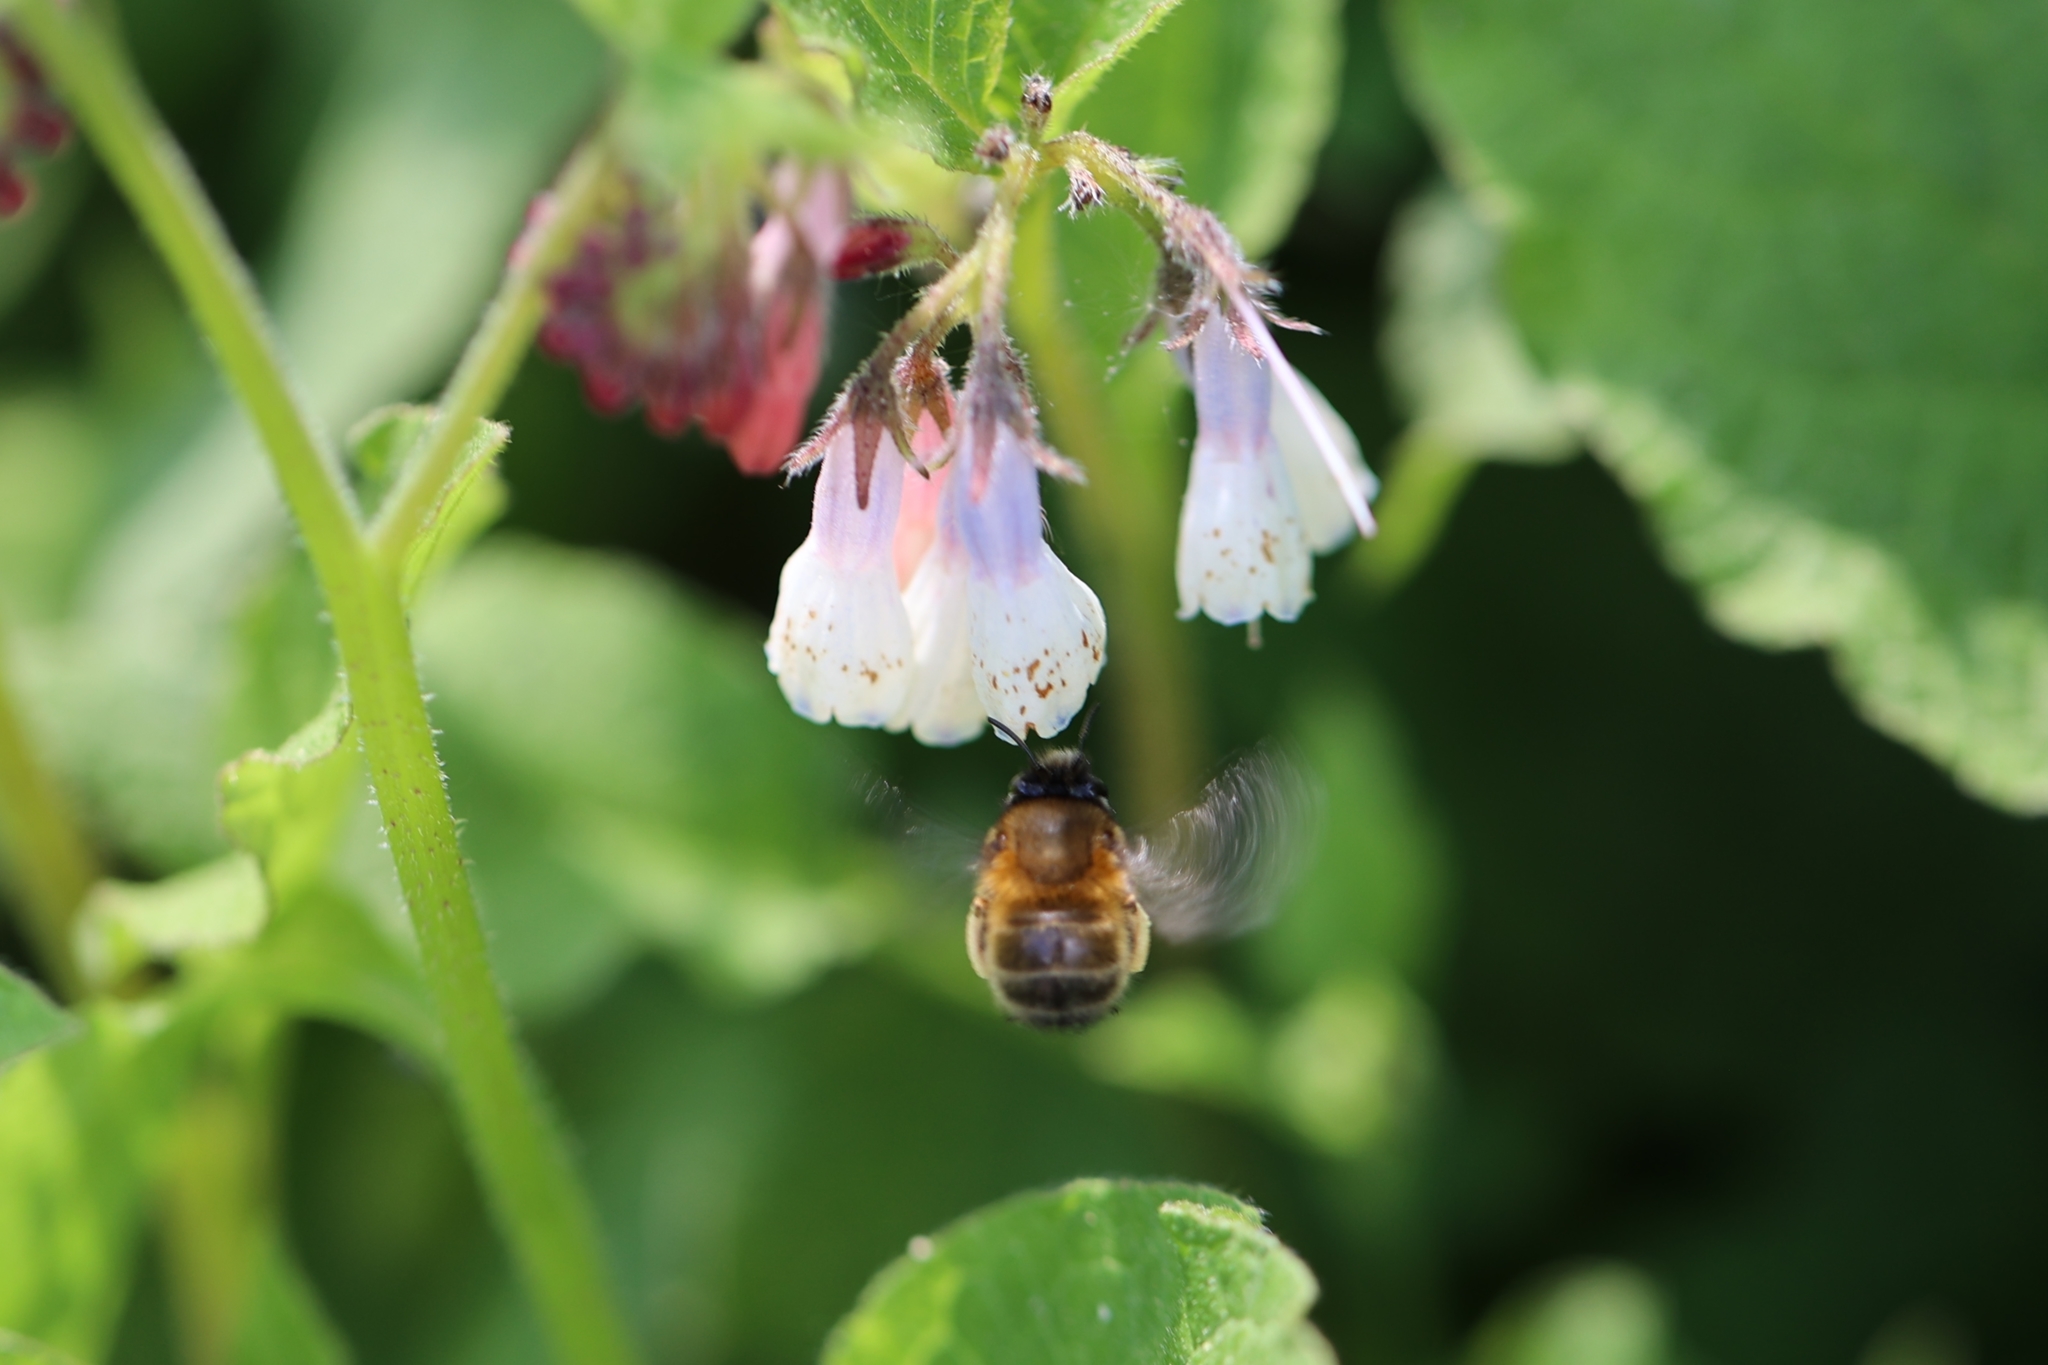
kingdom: Animalia
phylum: Arthropoda
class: Insecta
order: Hymenoptera
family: Apidae
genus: Anthophora
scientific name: Anthophora plumipes
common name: Hairy-footed flower bee
